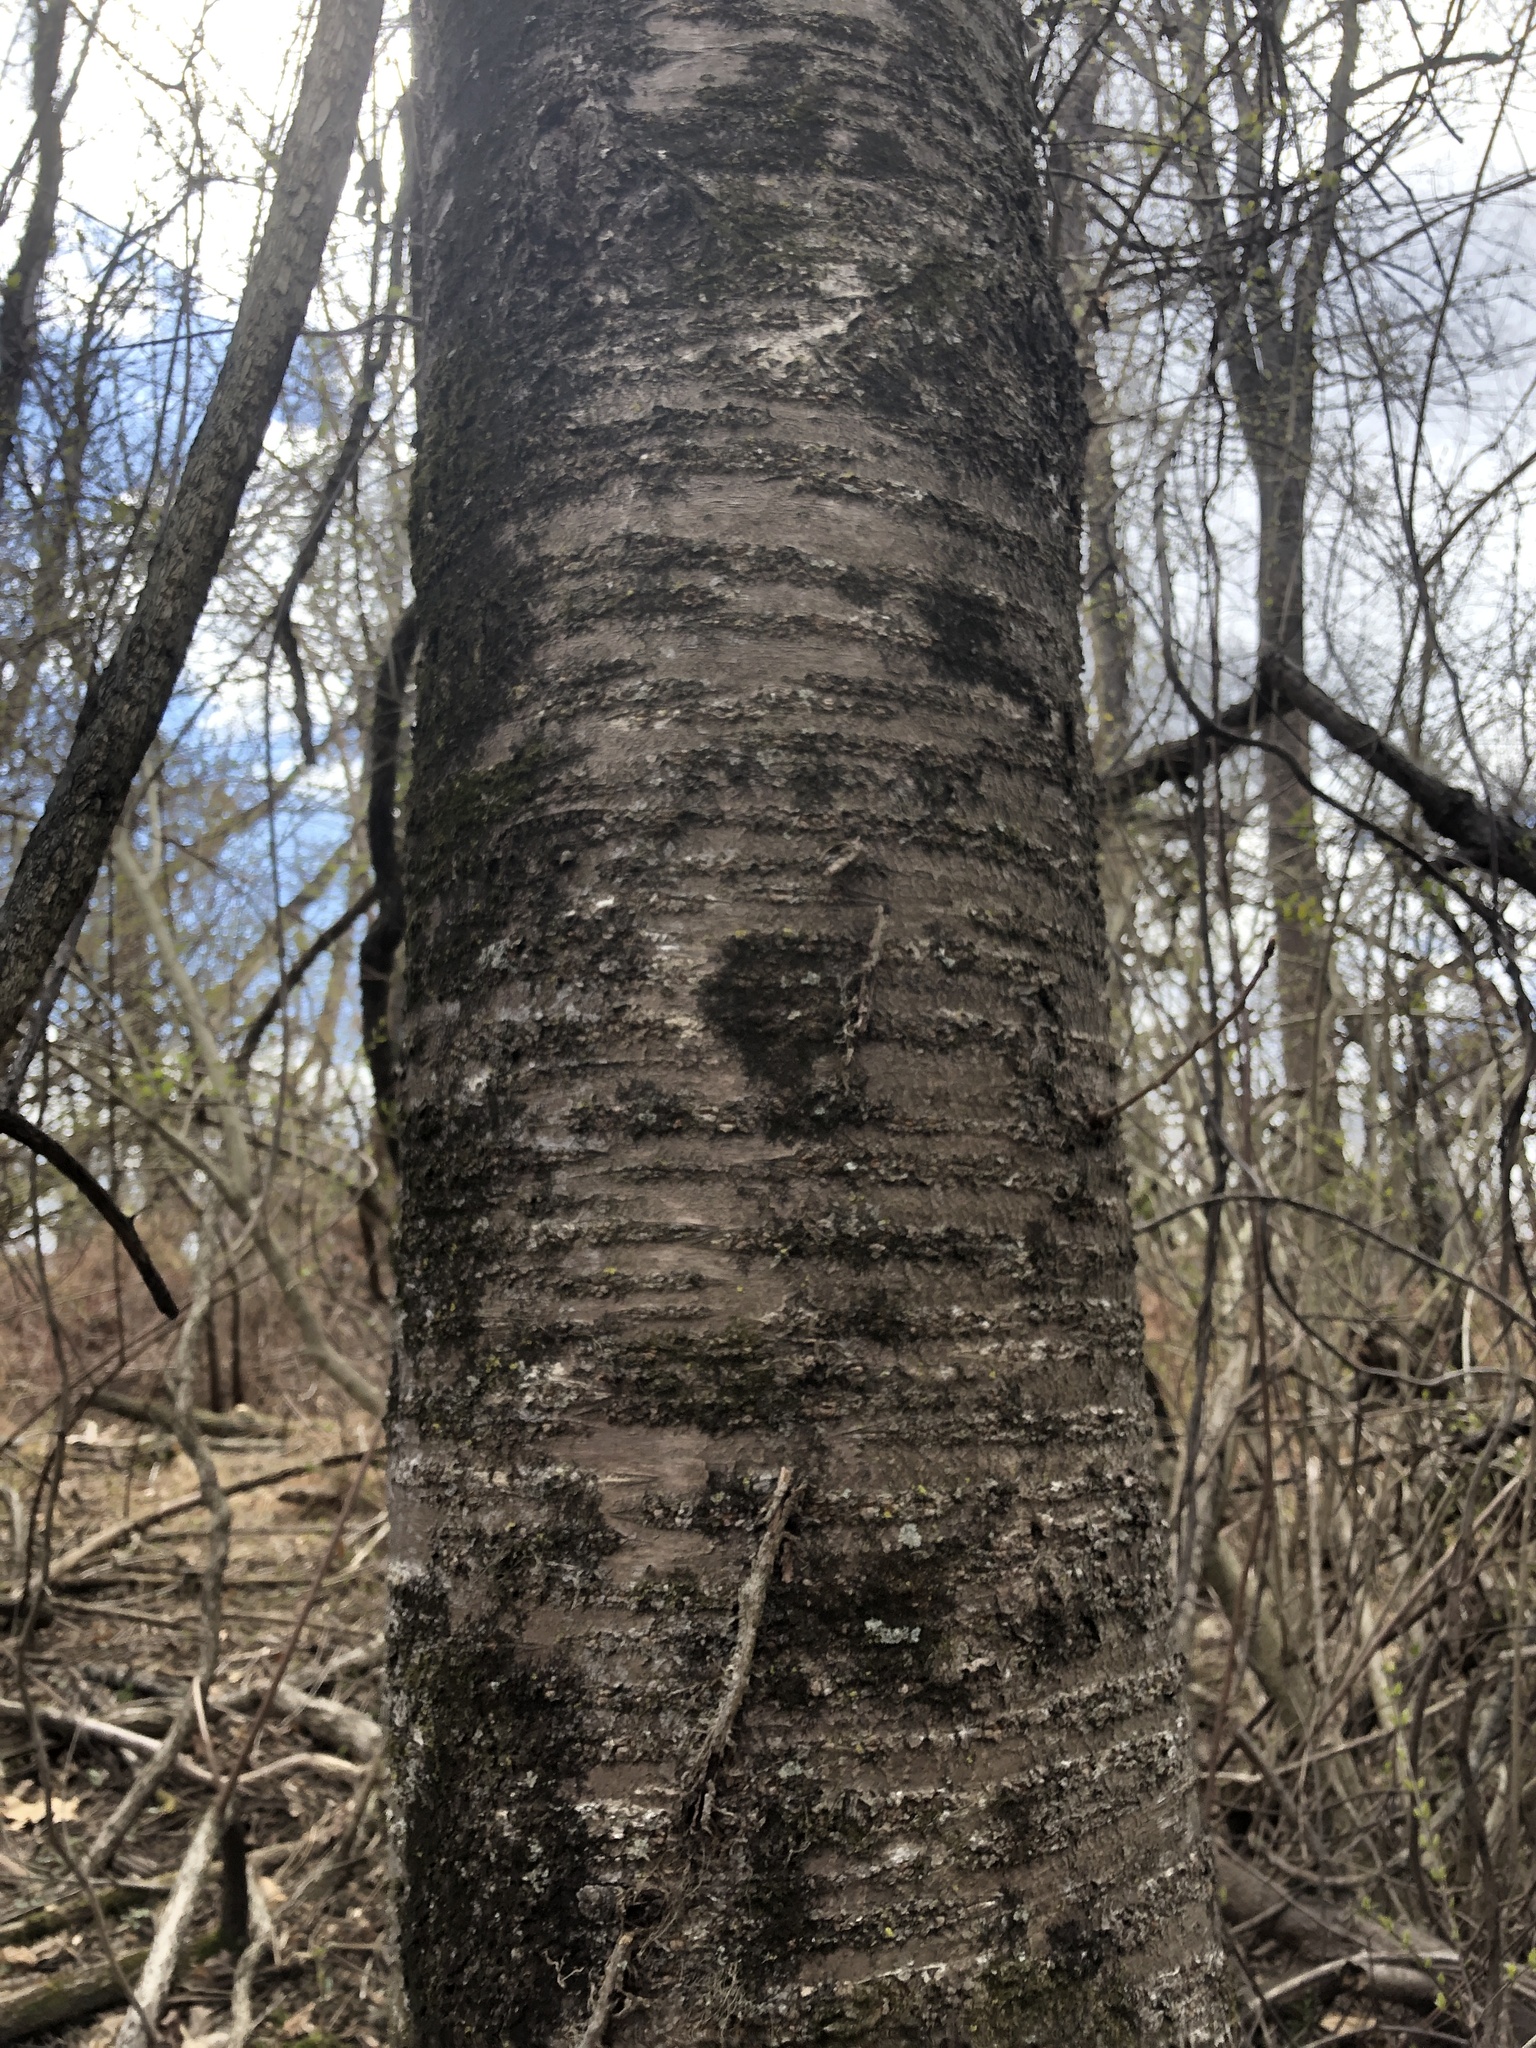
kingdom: Plantae
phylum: Tracheophyta
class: Magnoliopsida
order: Rosales
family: Rosaceae
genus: Prunus
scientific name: Prunus avium
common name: Sweet cherry
